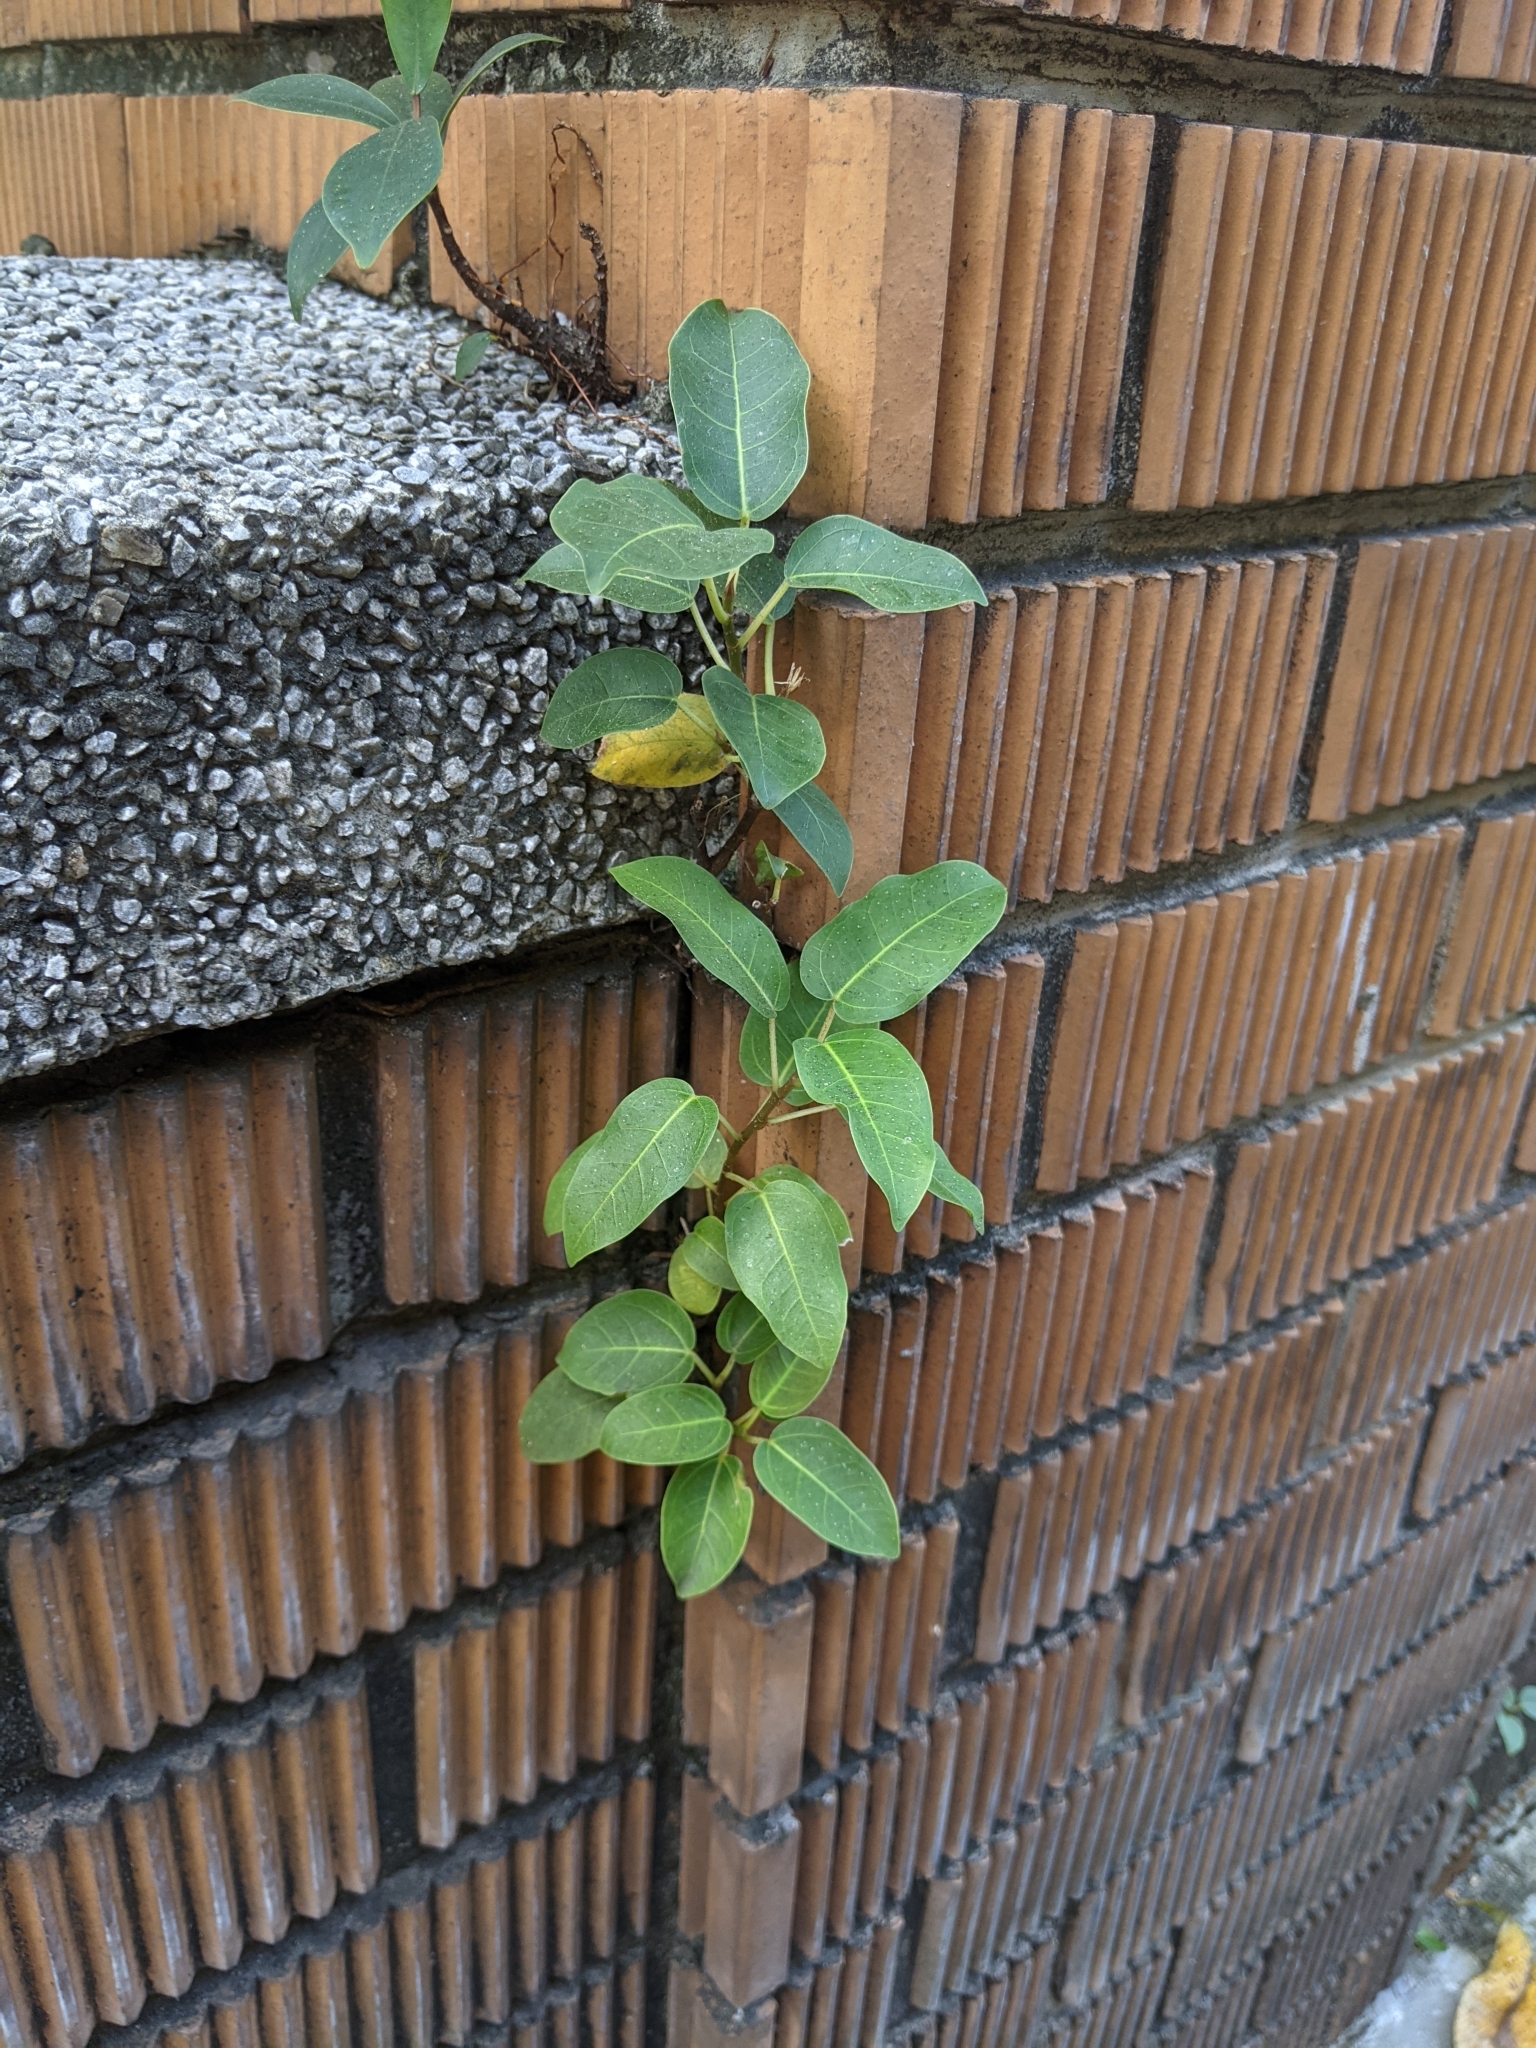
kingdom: Plantae
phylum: Tracheophyta
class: Magnoliopsida
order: Rosales
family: Moraceae
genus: Ficus
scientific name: Ficus subpisocarpa
